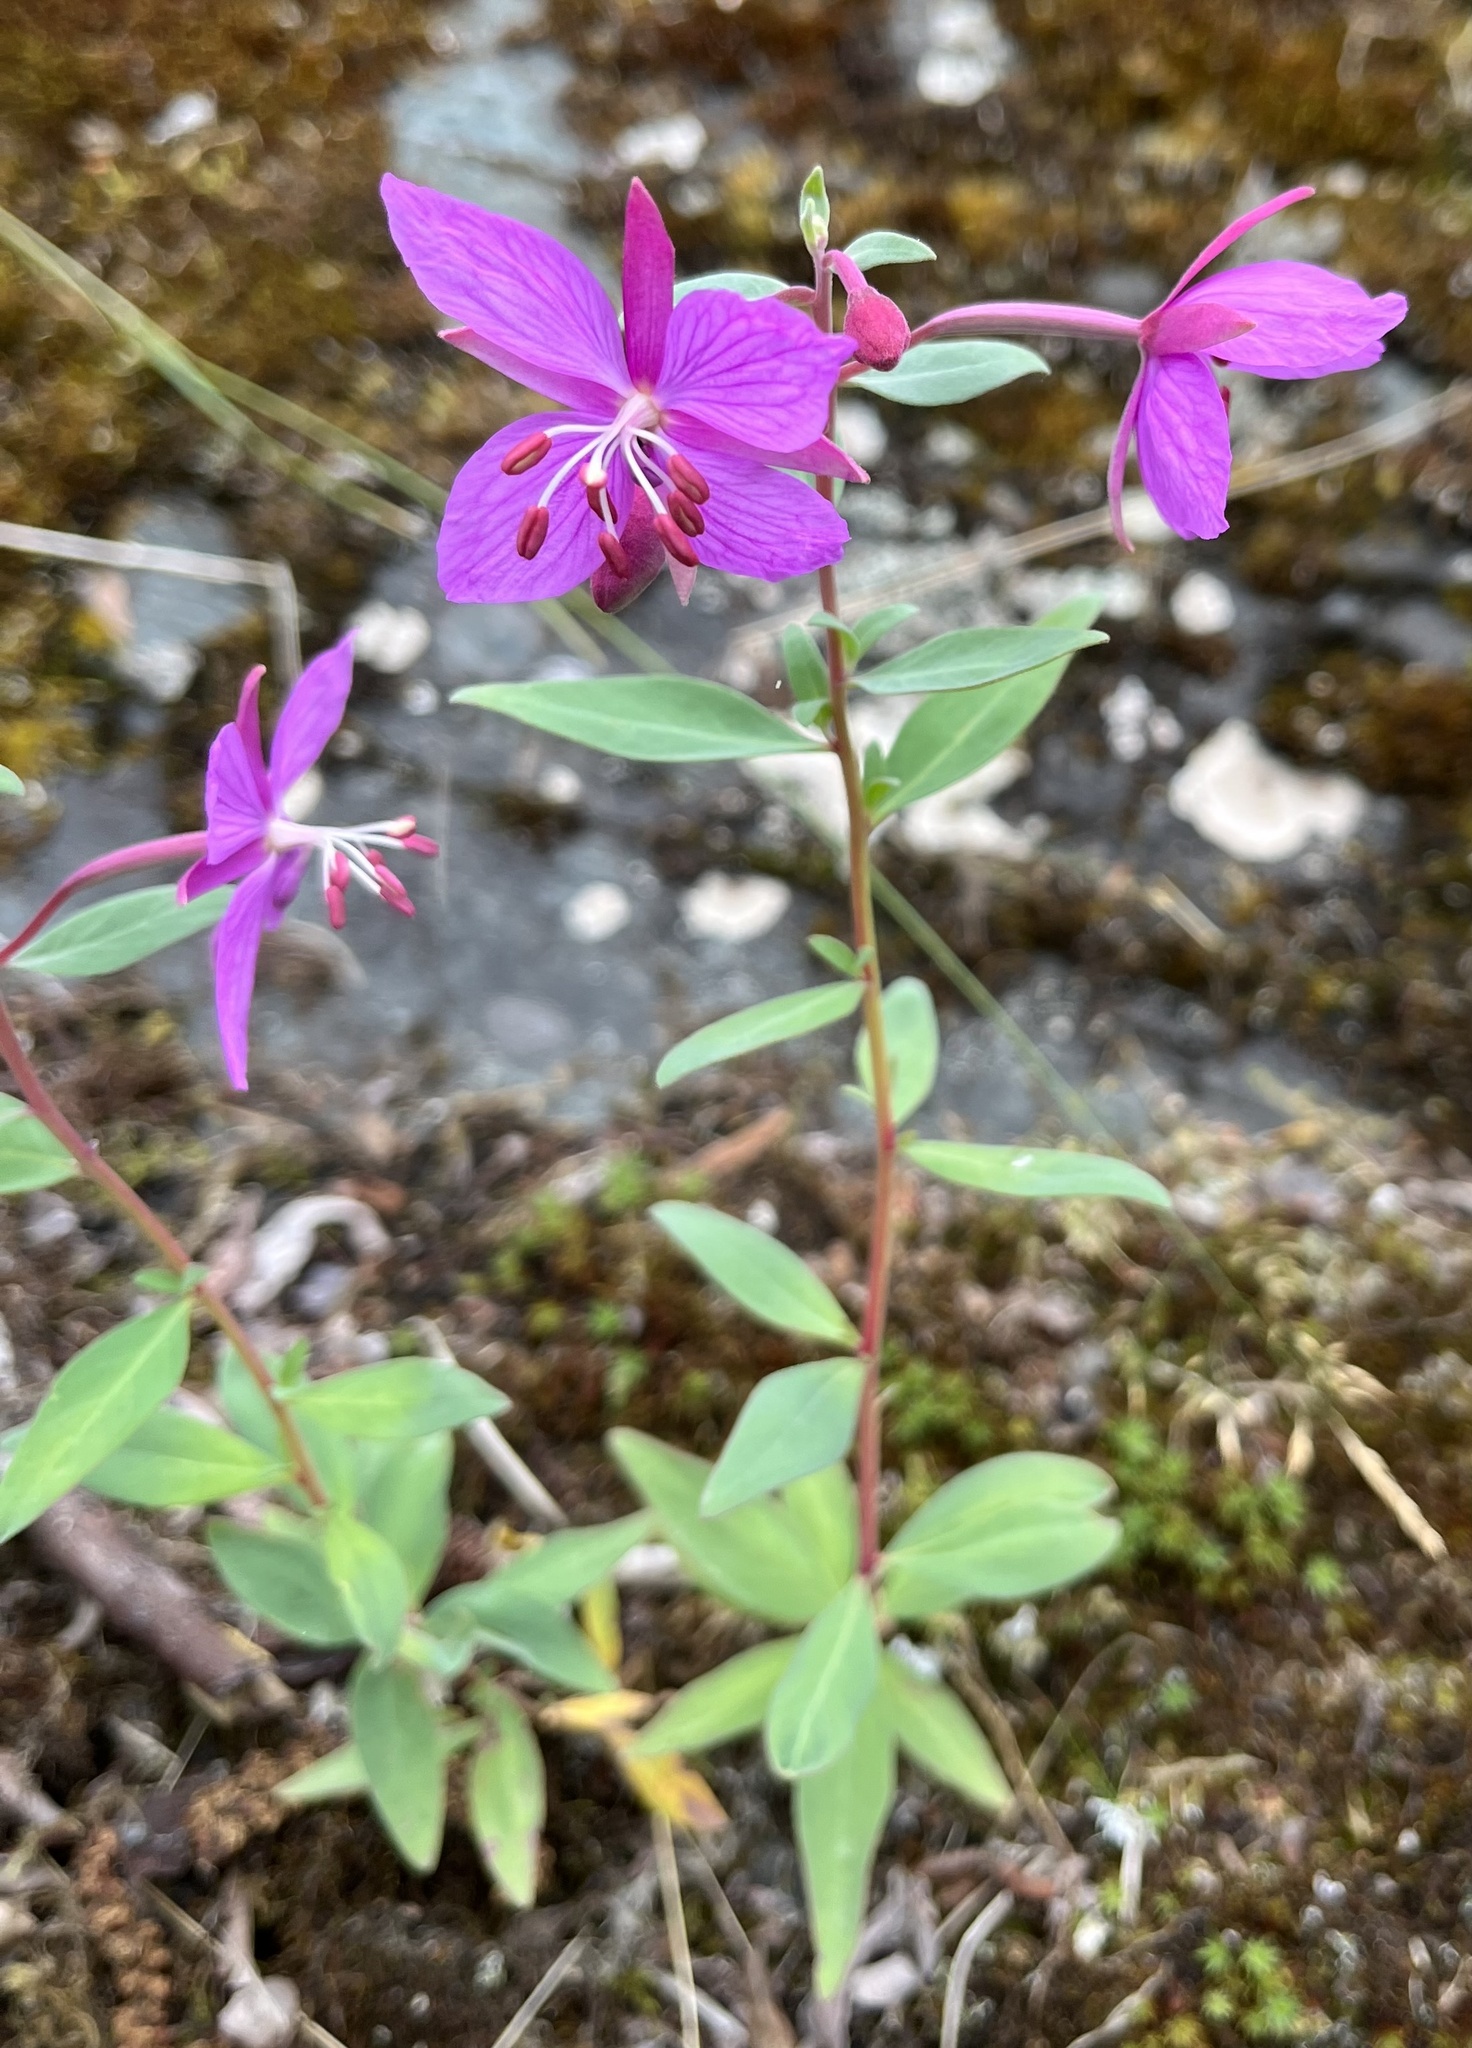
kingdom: Plantae
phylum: Tracheophyta
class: Magnoliopsida
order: Myrtales
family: Onagraceae
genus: Chamaenerion
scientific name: Chamaenerion latifolium
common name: Dwarf fireweed
